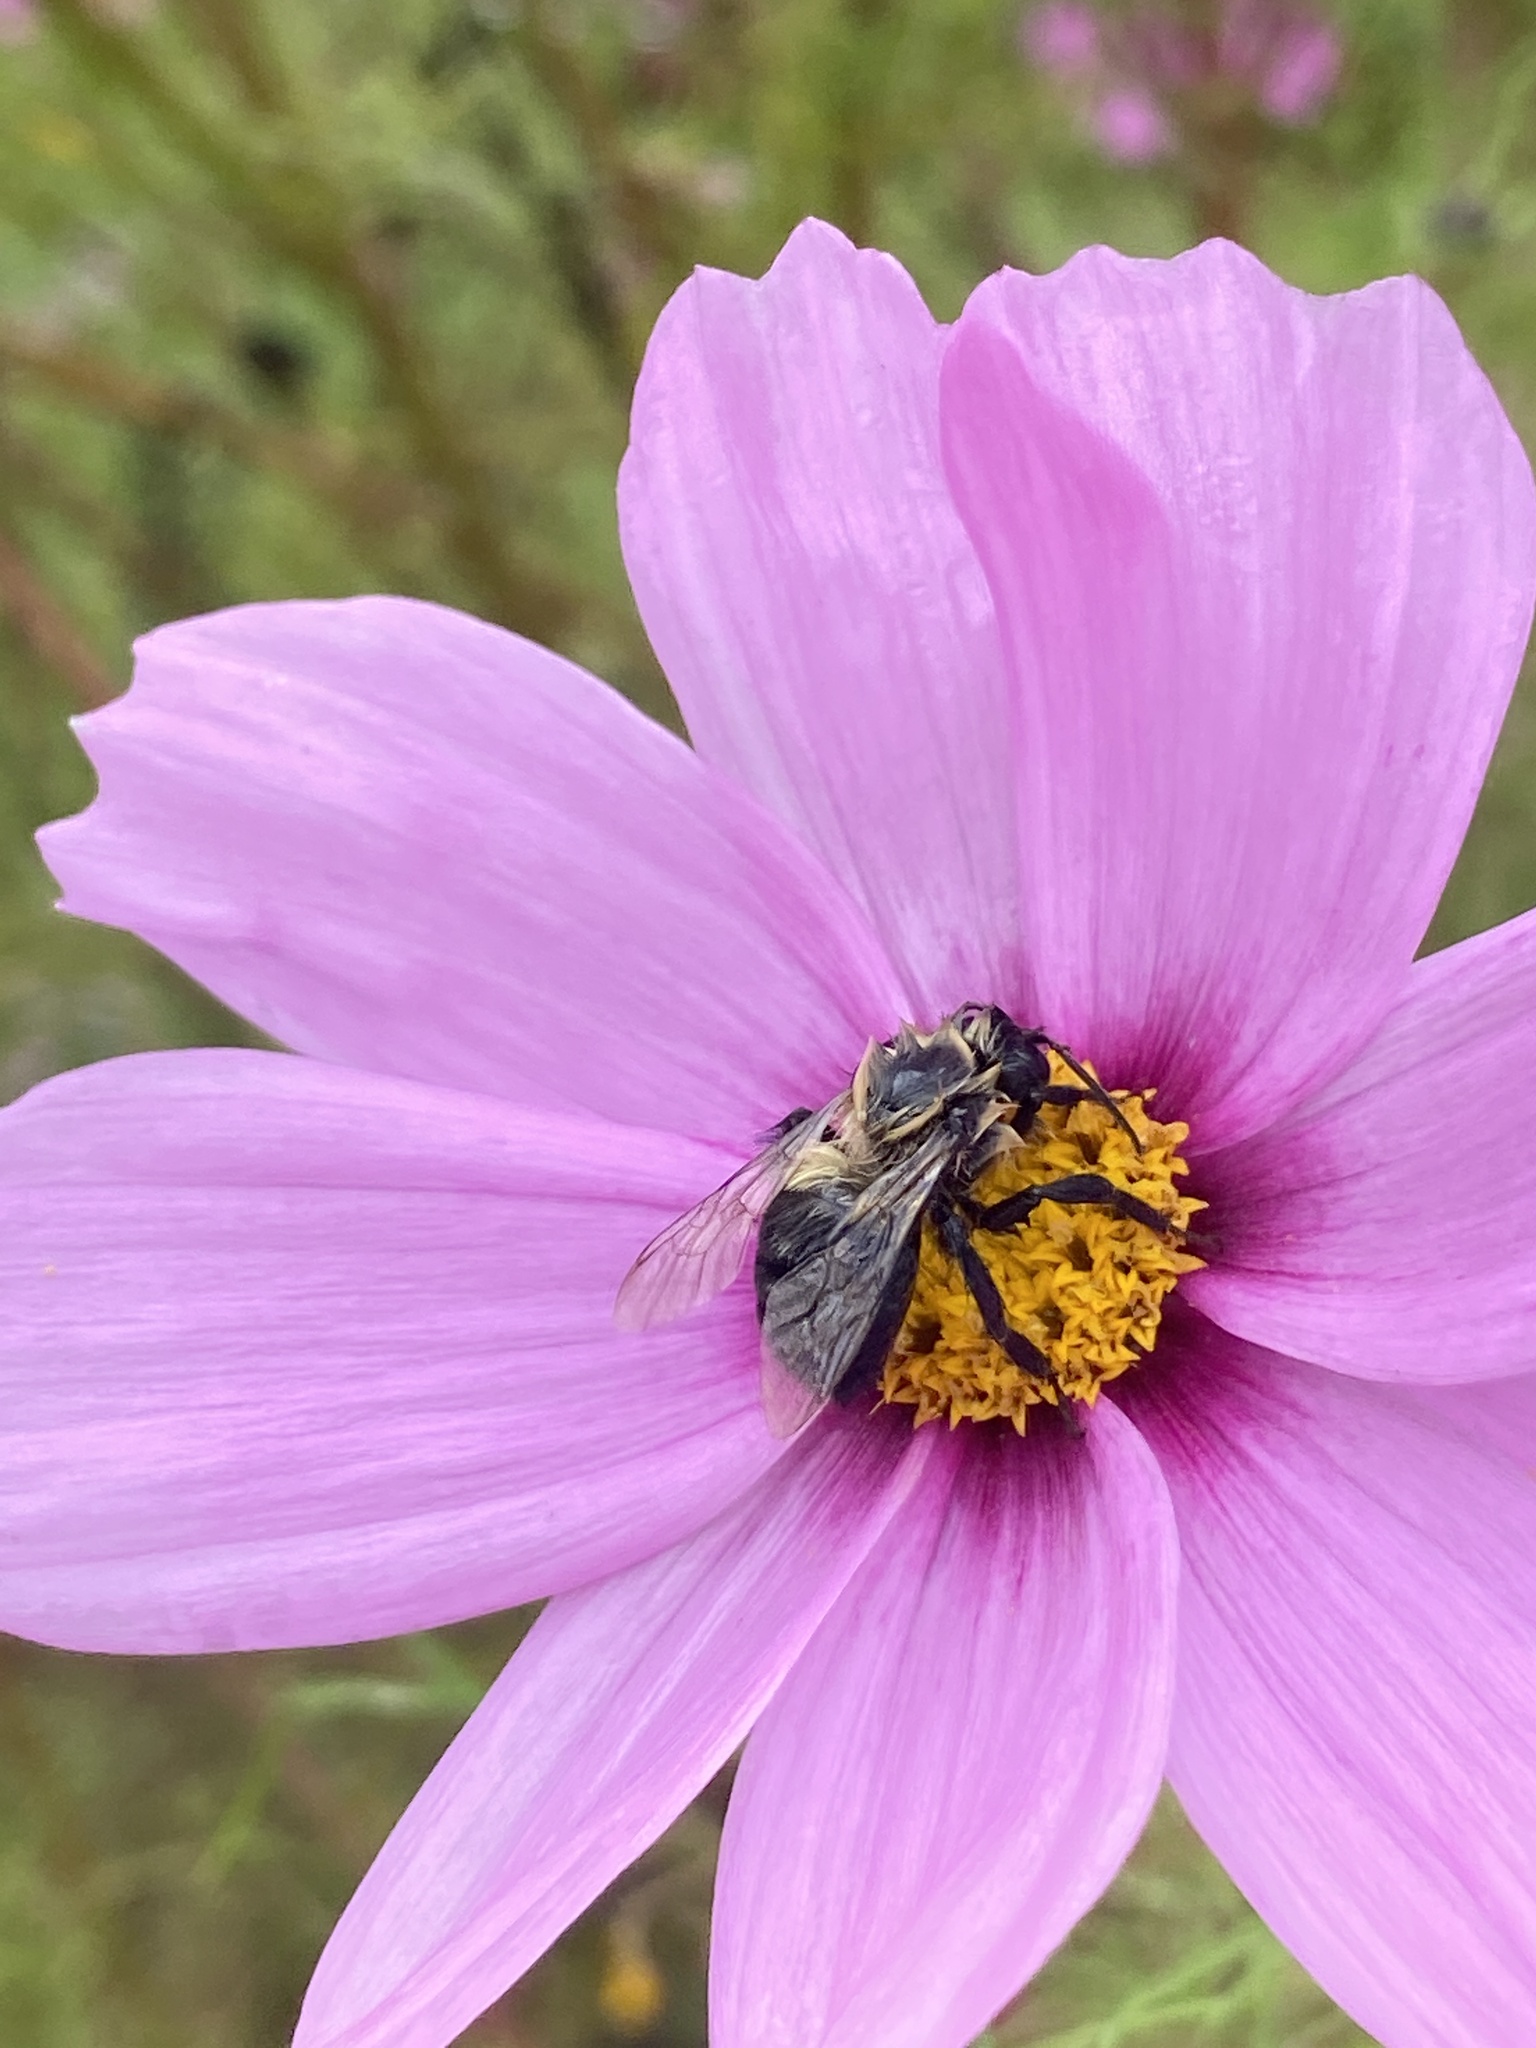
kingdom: Animalia
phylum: Arthropoda
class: Insecta
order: Hymenoptera
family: Apidae
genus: Bombus
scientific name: Bombus impatiens
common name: Common eastern bumble bee
